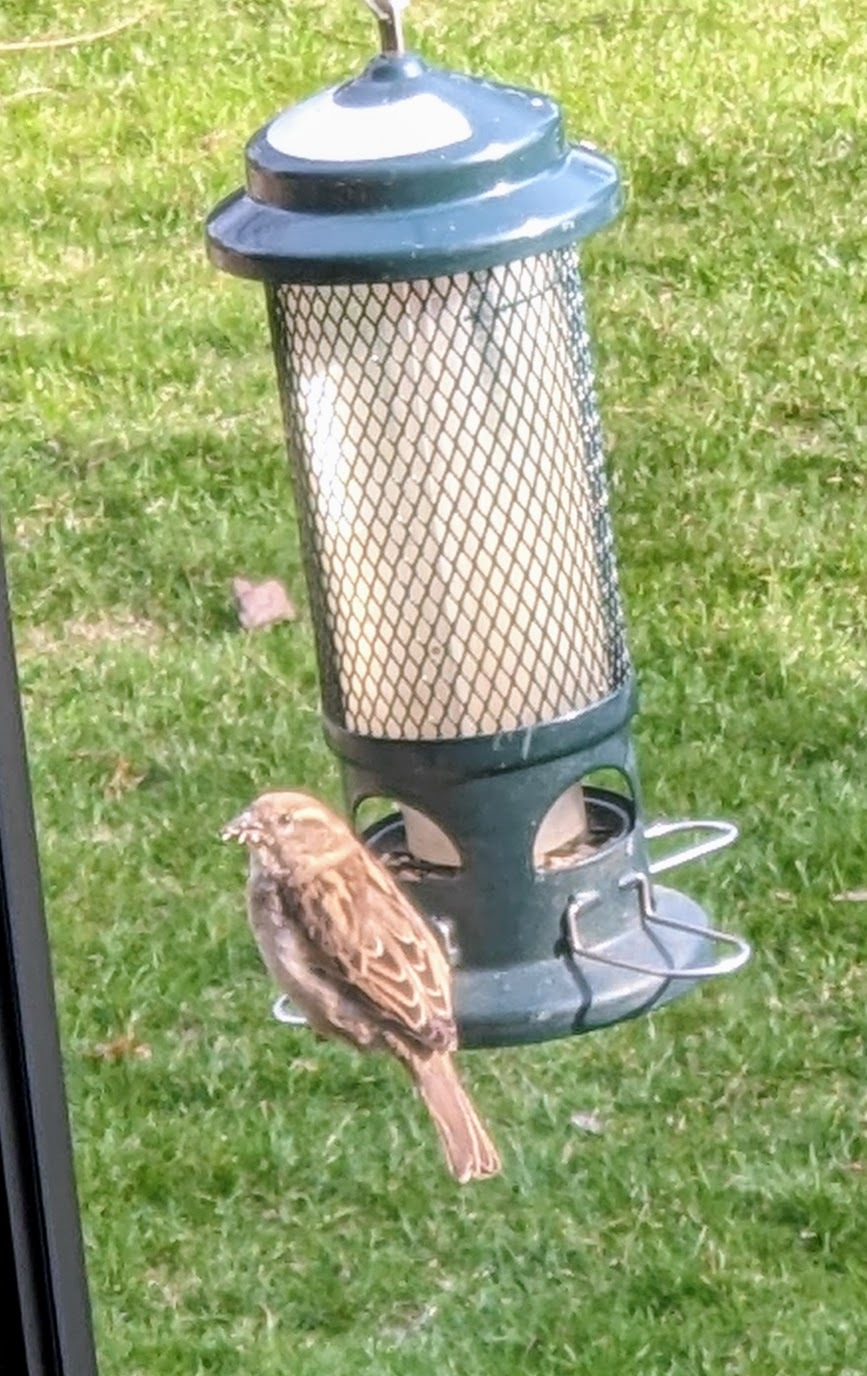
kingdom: Animalia
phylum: Chordata
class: Aves
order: Passeriformes
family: Passeridae
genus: Passer
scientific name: Passer domesticus
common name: House sparrow
